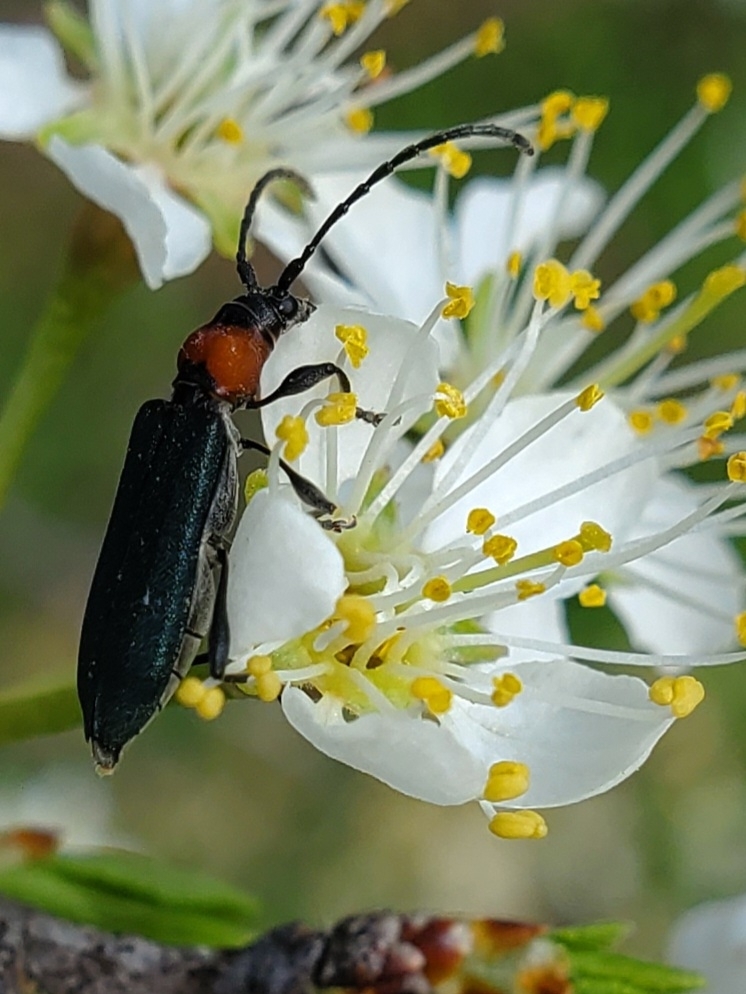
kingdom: Animalia
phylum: Arthropoda
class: Insecta
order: Coleoptera
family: Cerambycidae
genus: Dere
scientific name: Dere thoracica
